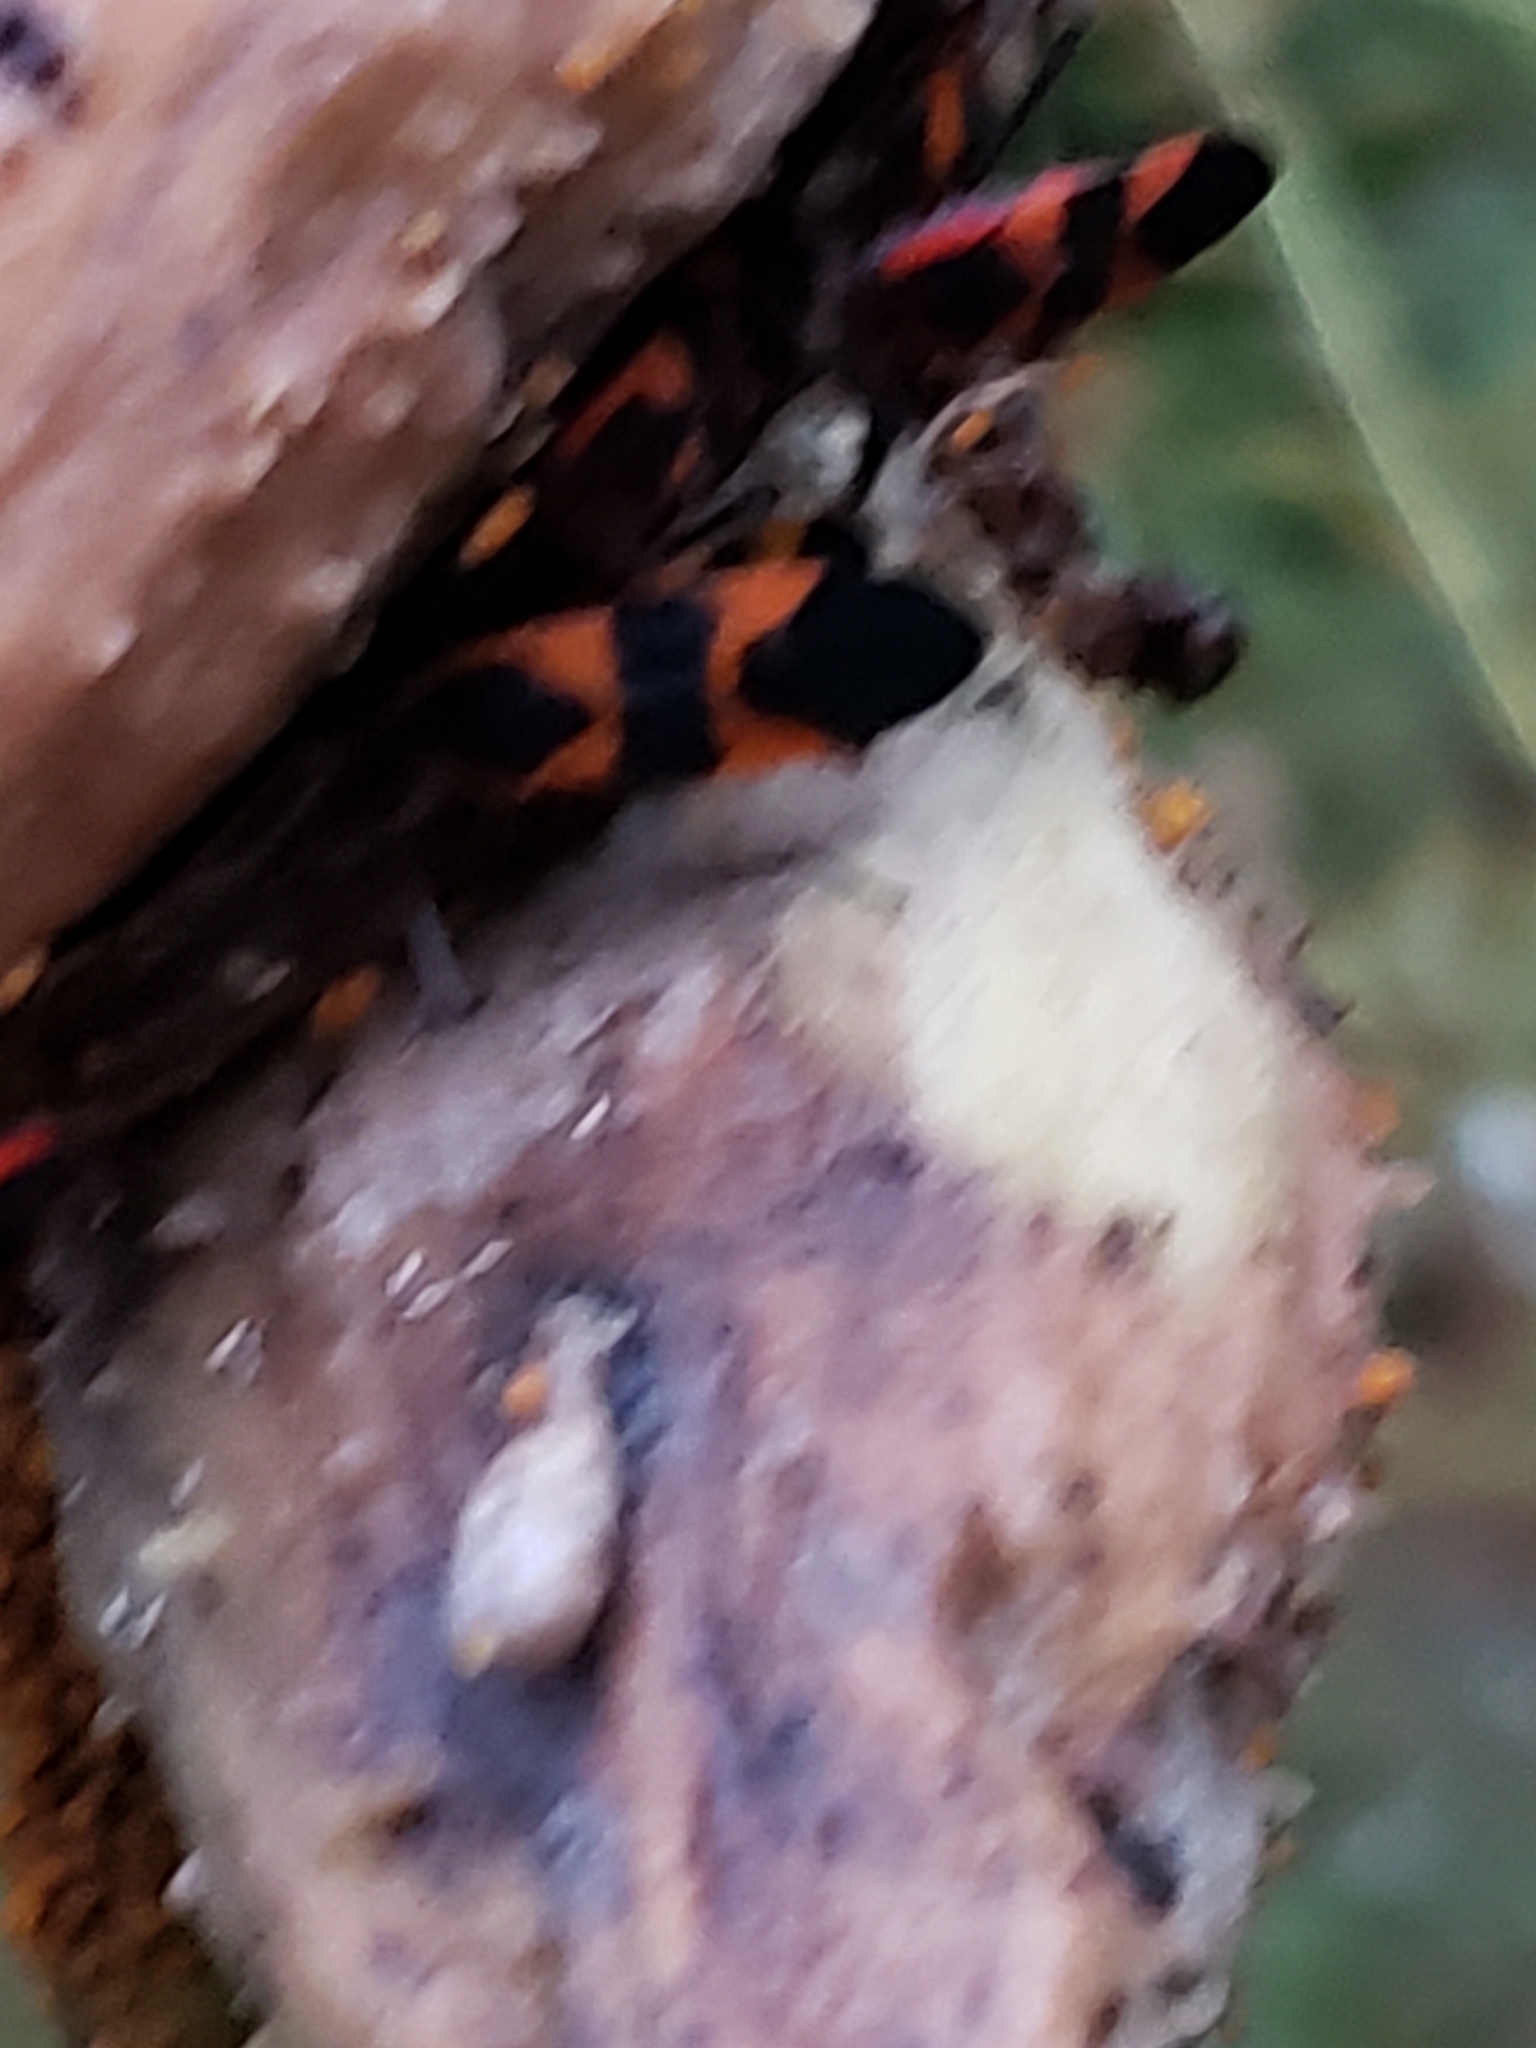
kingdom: Animalia
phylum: Arthropoda
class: Insecta
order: Hemiptera
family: Lygaeidae
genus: Oncopeltus
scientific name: Oncopeltus fasciatus
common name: Large milkweed bug
